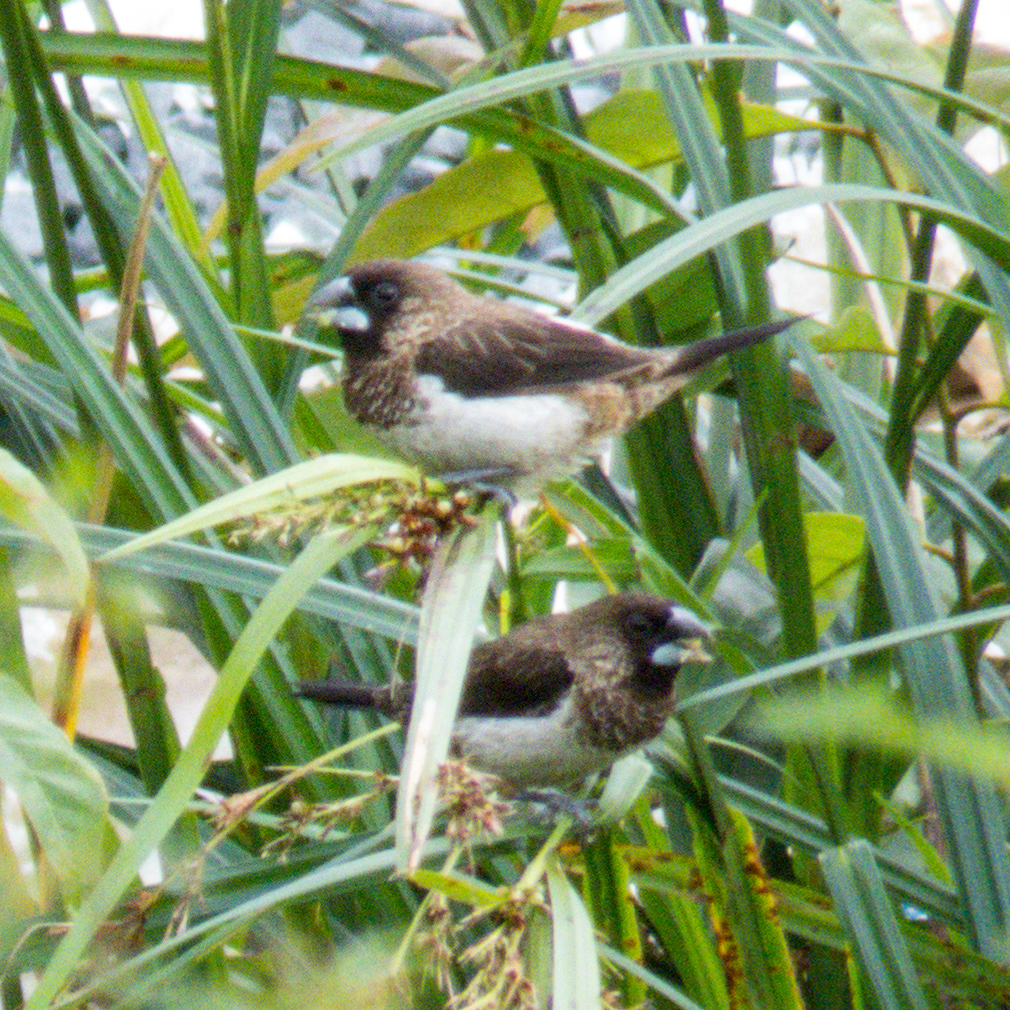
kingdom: Animalia
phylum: Chordata
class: Aves
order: Passeriformes
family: Estrildidae
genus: Lonchura
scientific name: Lonchura striata
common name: White-rumped munia
